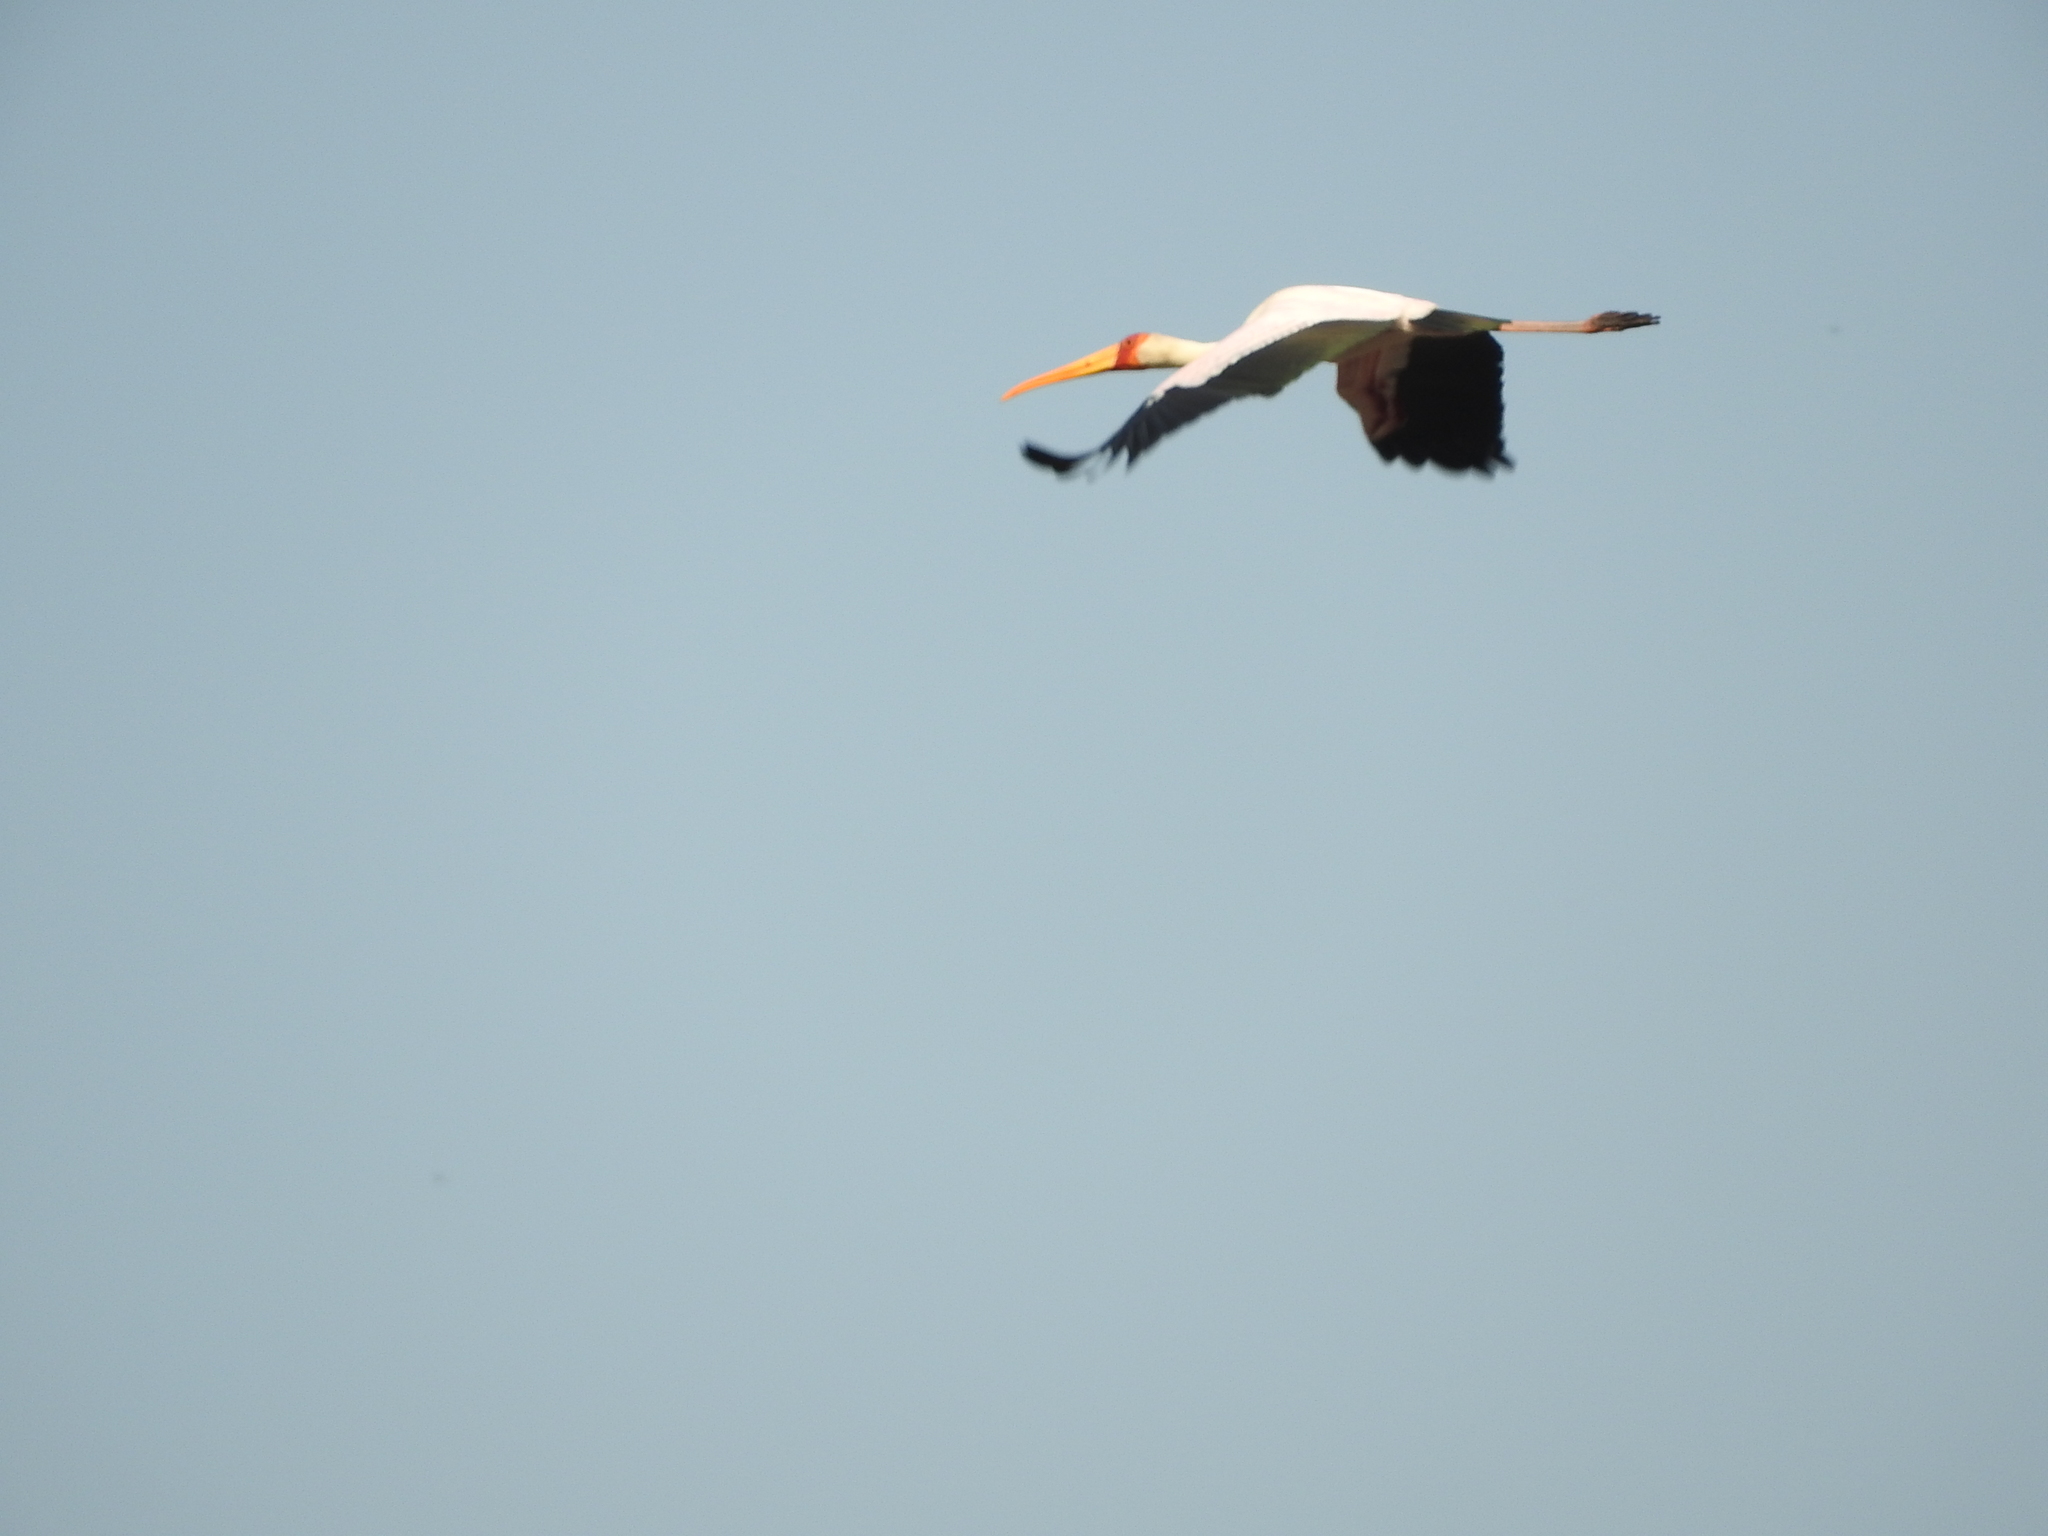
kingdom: Animalia
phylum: Chordata
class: Aves
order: Ciconiiformes
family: Ciconiidae
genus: Mycteria
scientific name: Mycteria ibis
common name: Yellow-billed stork
